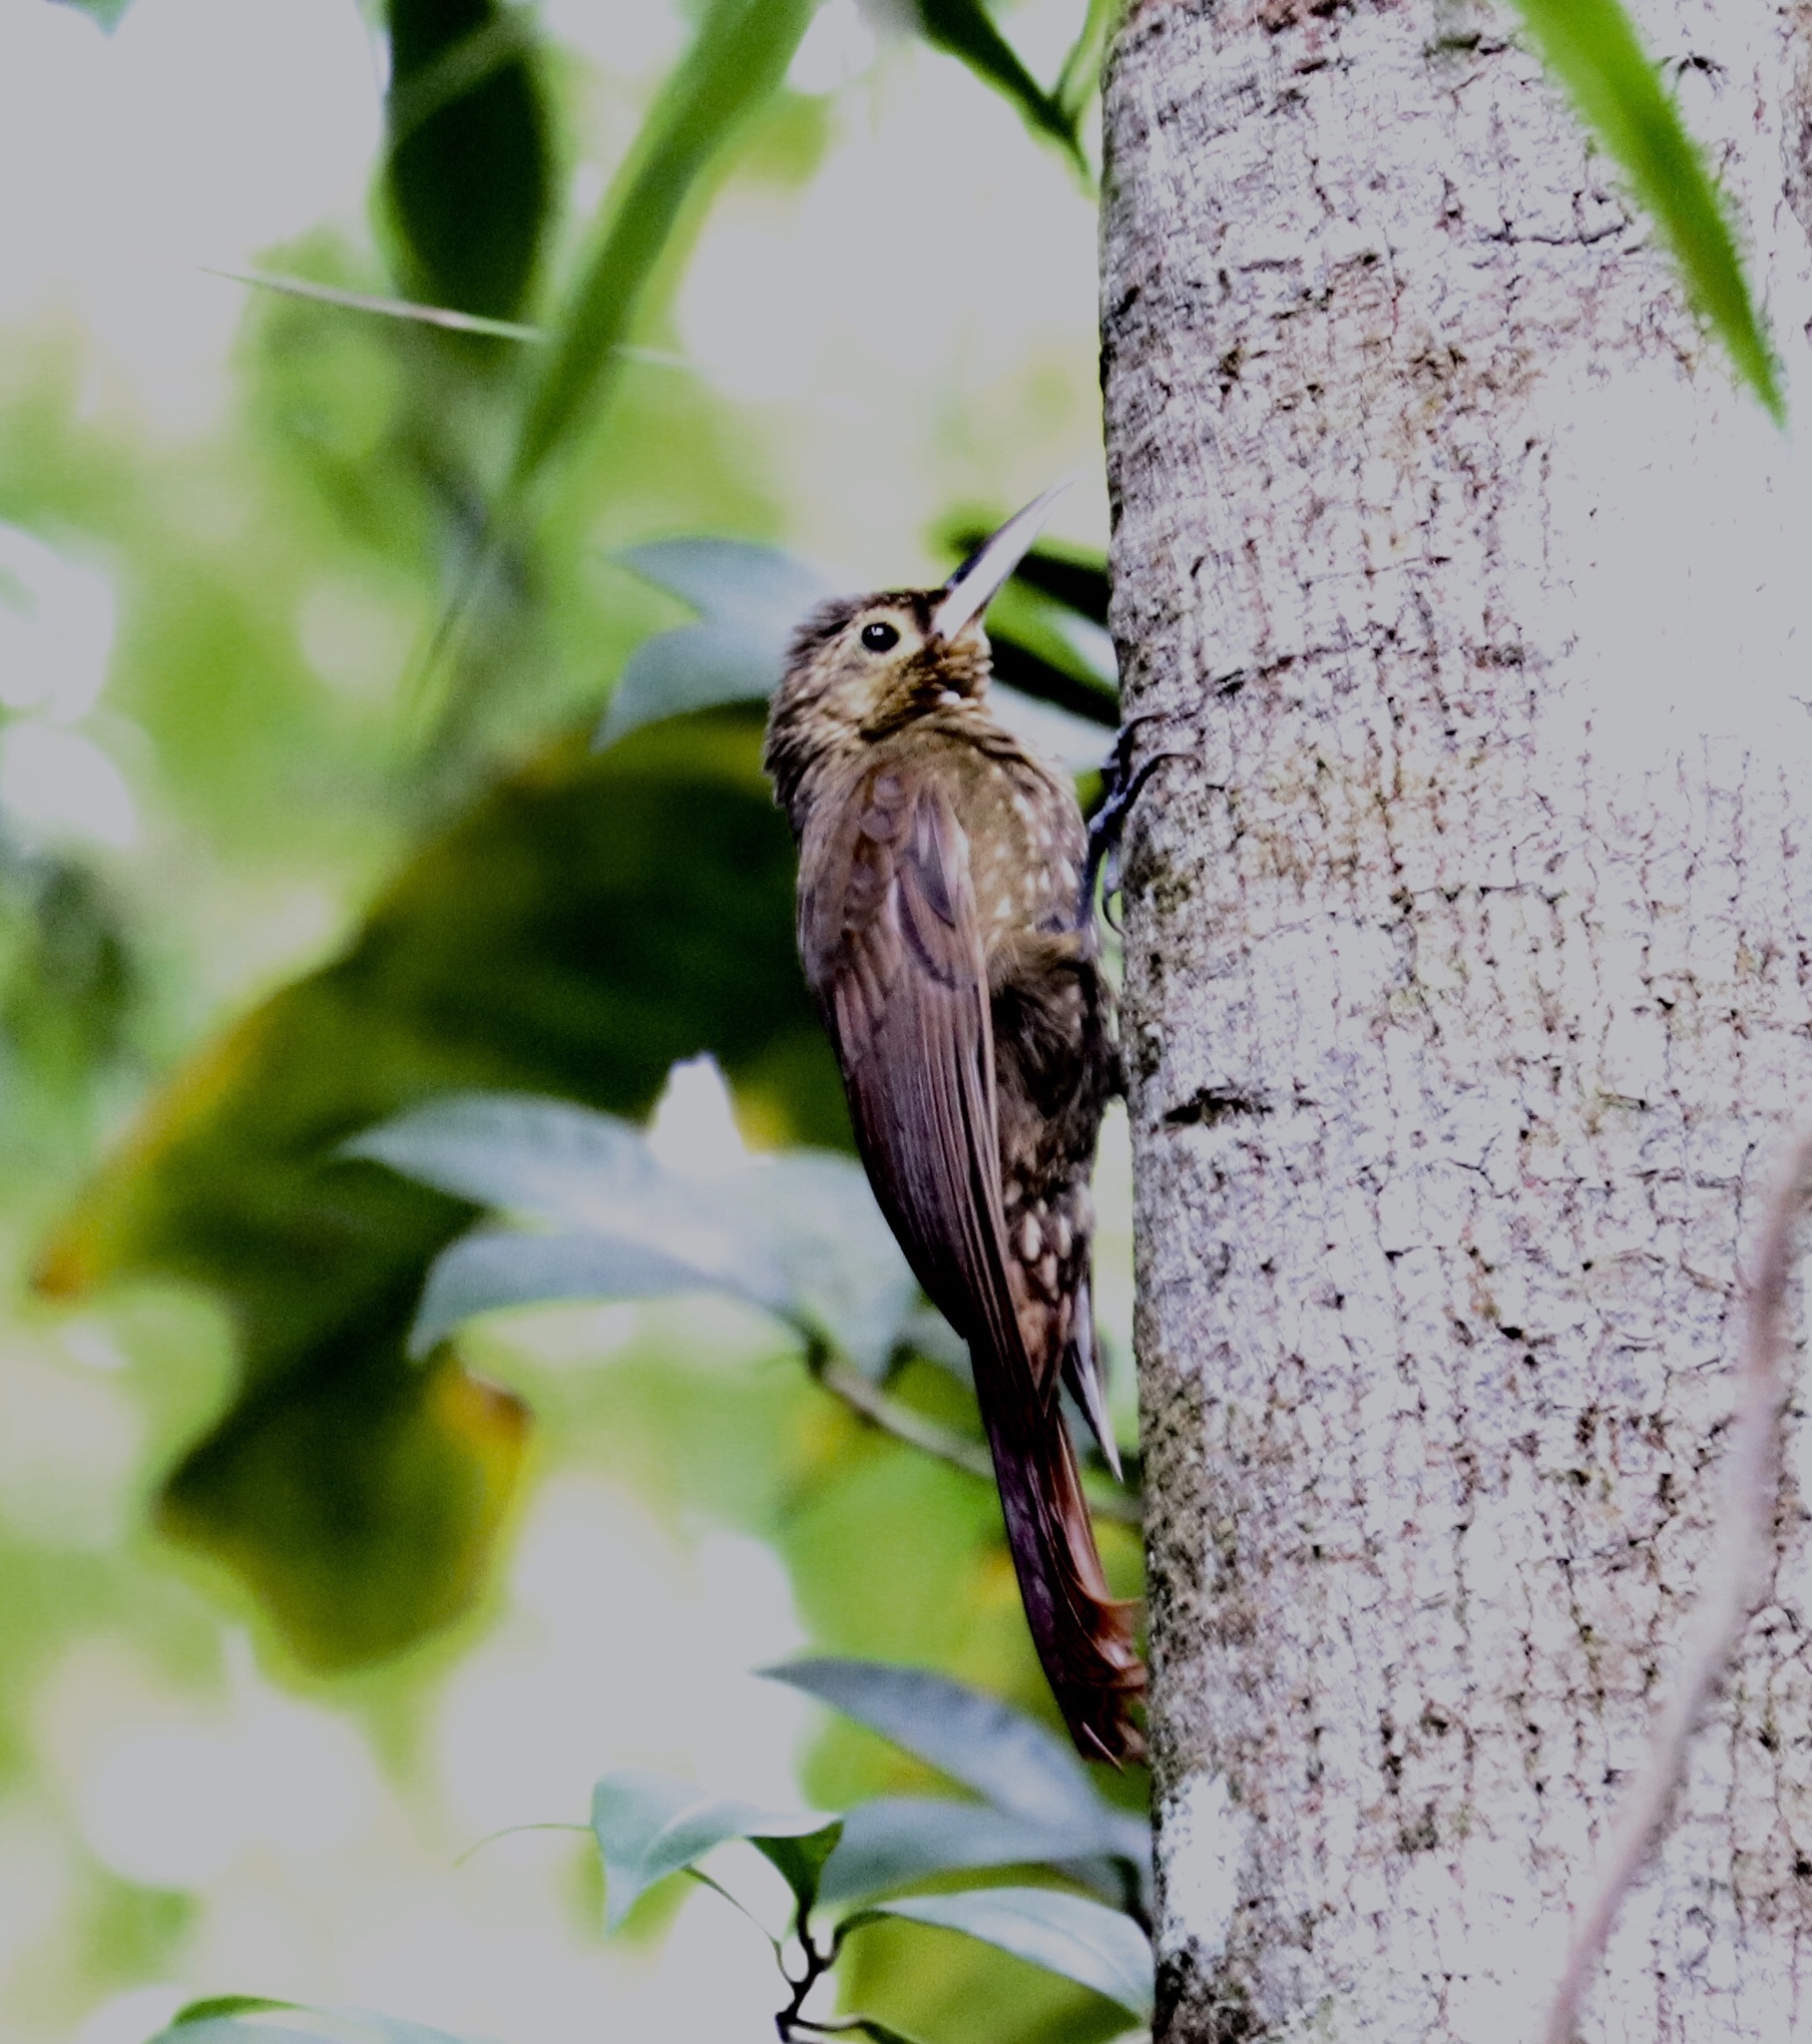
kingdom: Animalia
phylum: Chordata
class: Aves
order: Passeriformes
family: Furnariidae
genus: Xiphorhynchus
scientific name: Xiphorhynchus erythropygius
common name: Spotted woodcreeper
